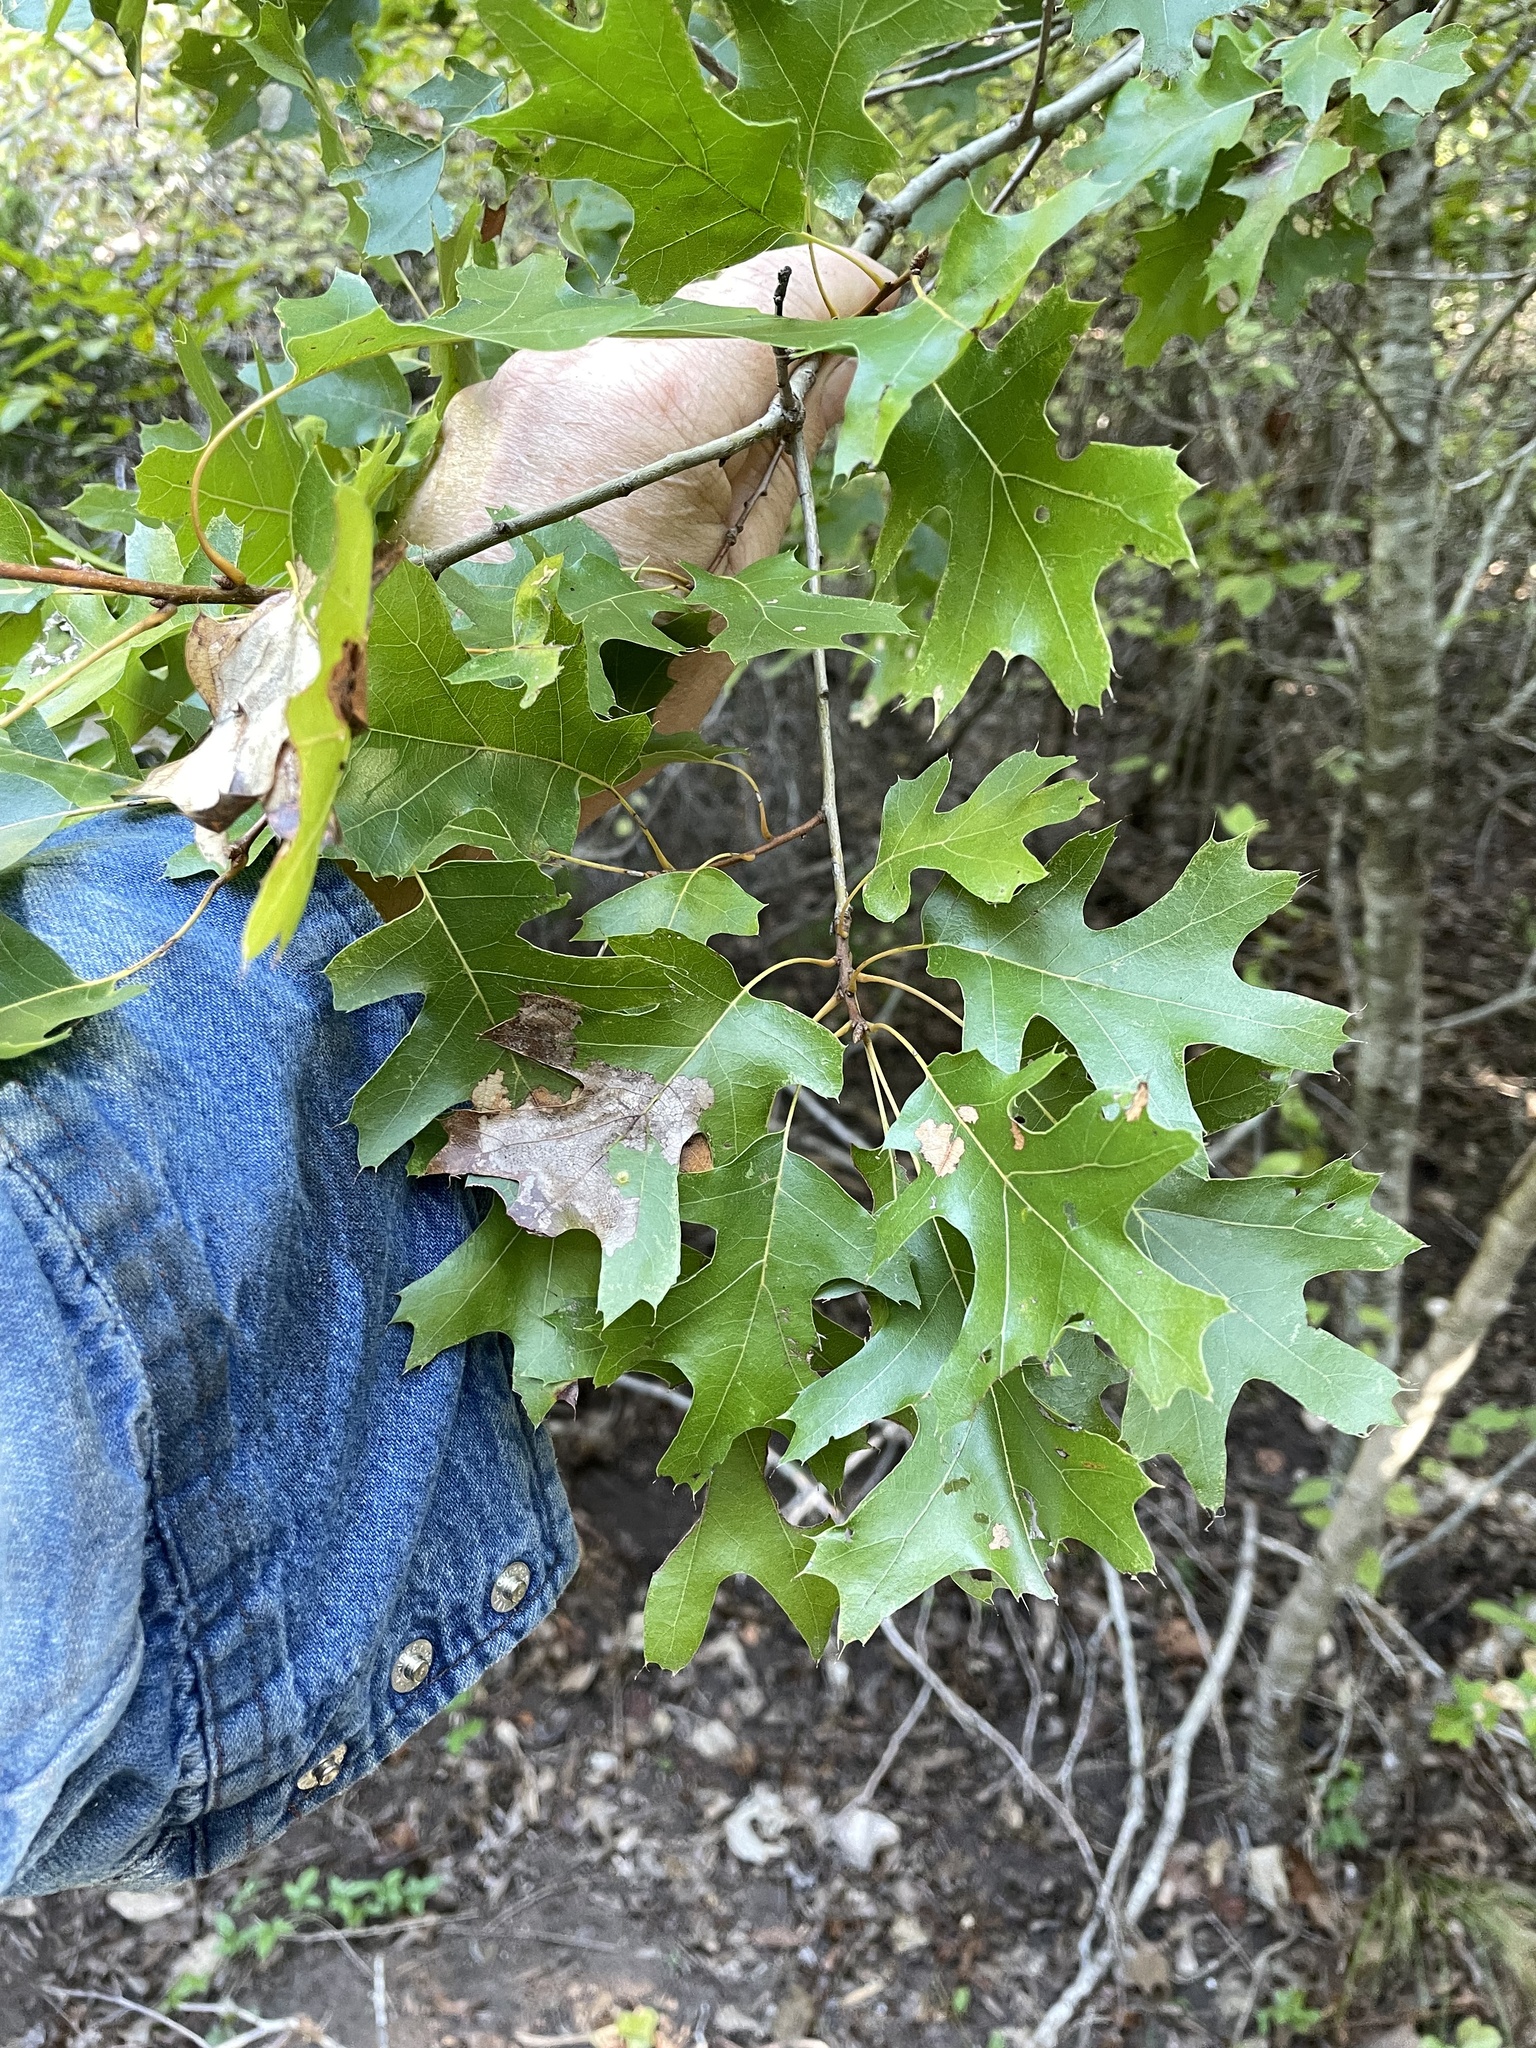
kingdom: Plantae
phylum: Tracheophyta
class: Magnoliopsida
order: Fagales
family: Fagaceae
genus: Quercus
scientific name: Quercus buckleyi
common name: Buckley oak
